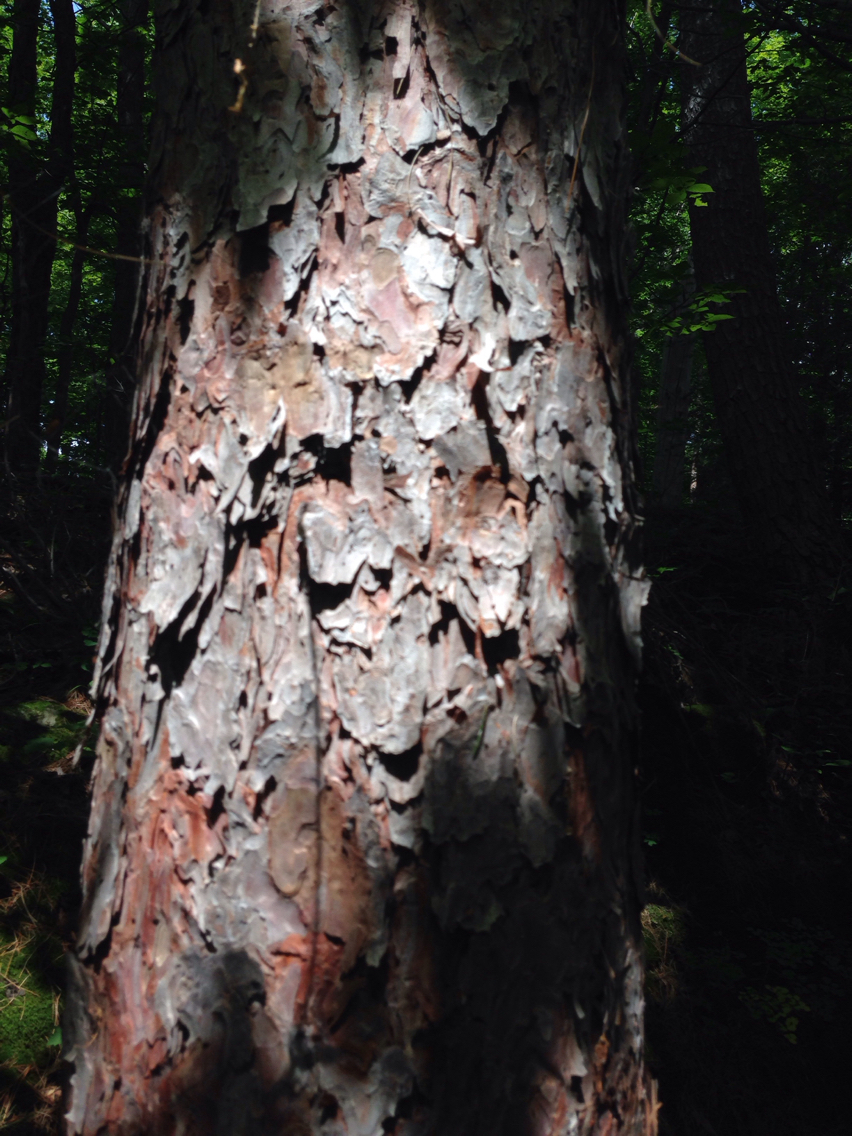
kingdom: Plantae
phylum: Tracheophyta
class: Pinopsida
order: Pinales
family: Pinaceae
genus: Pinus
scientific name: Pinus resinosa
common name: Norway pine
